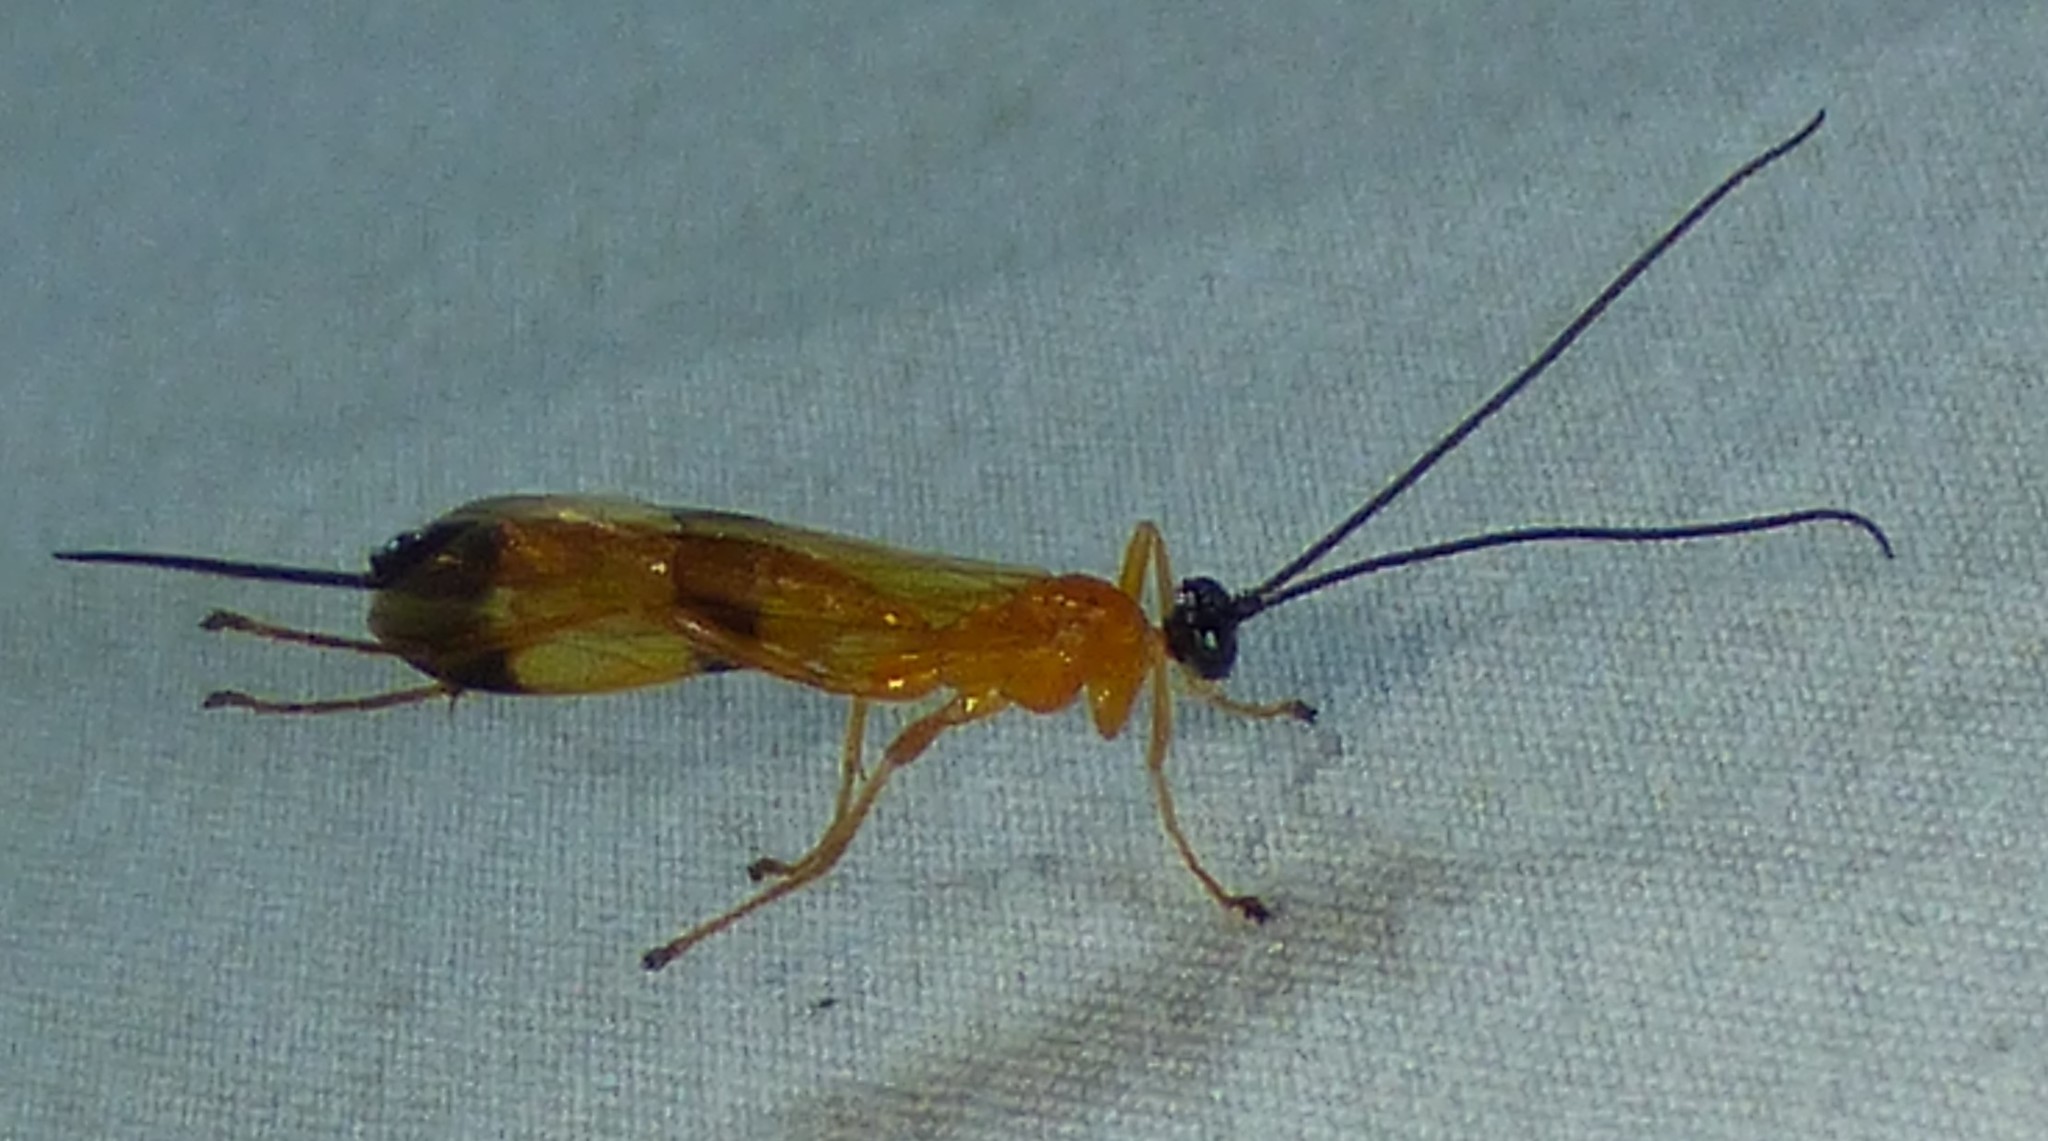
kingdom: Animalia
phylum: Arthropoda
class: Insecta
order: Hymenoptera
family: Ichneumonidae
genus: Acrotaphus
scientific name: Acrotaphus wiltii
